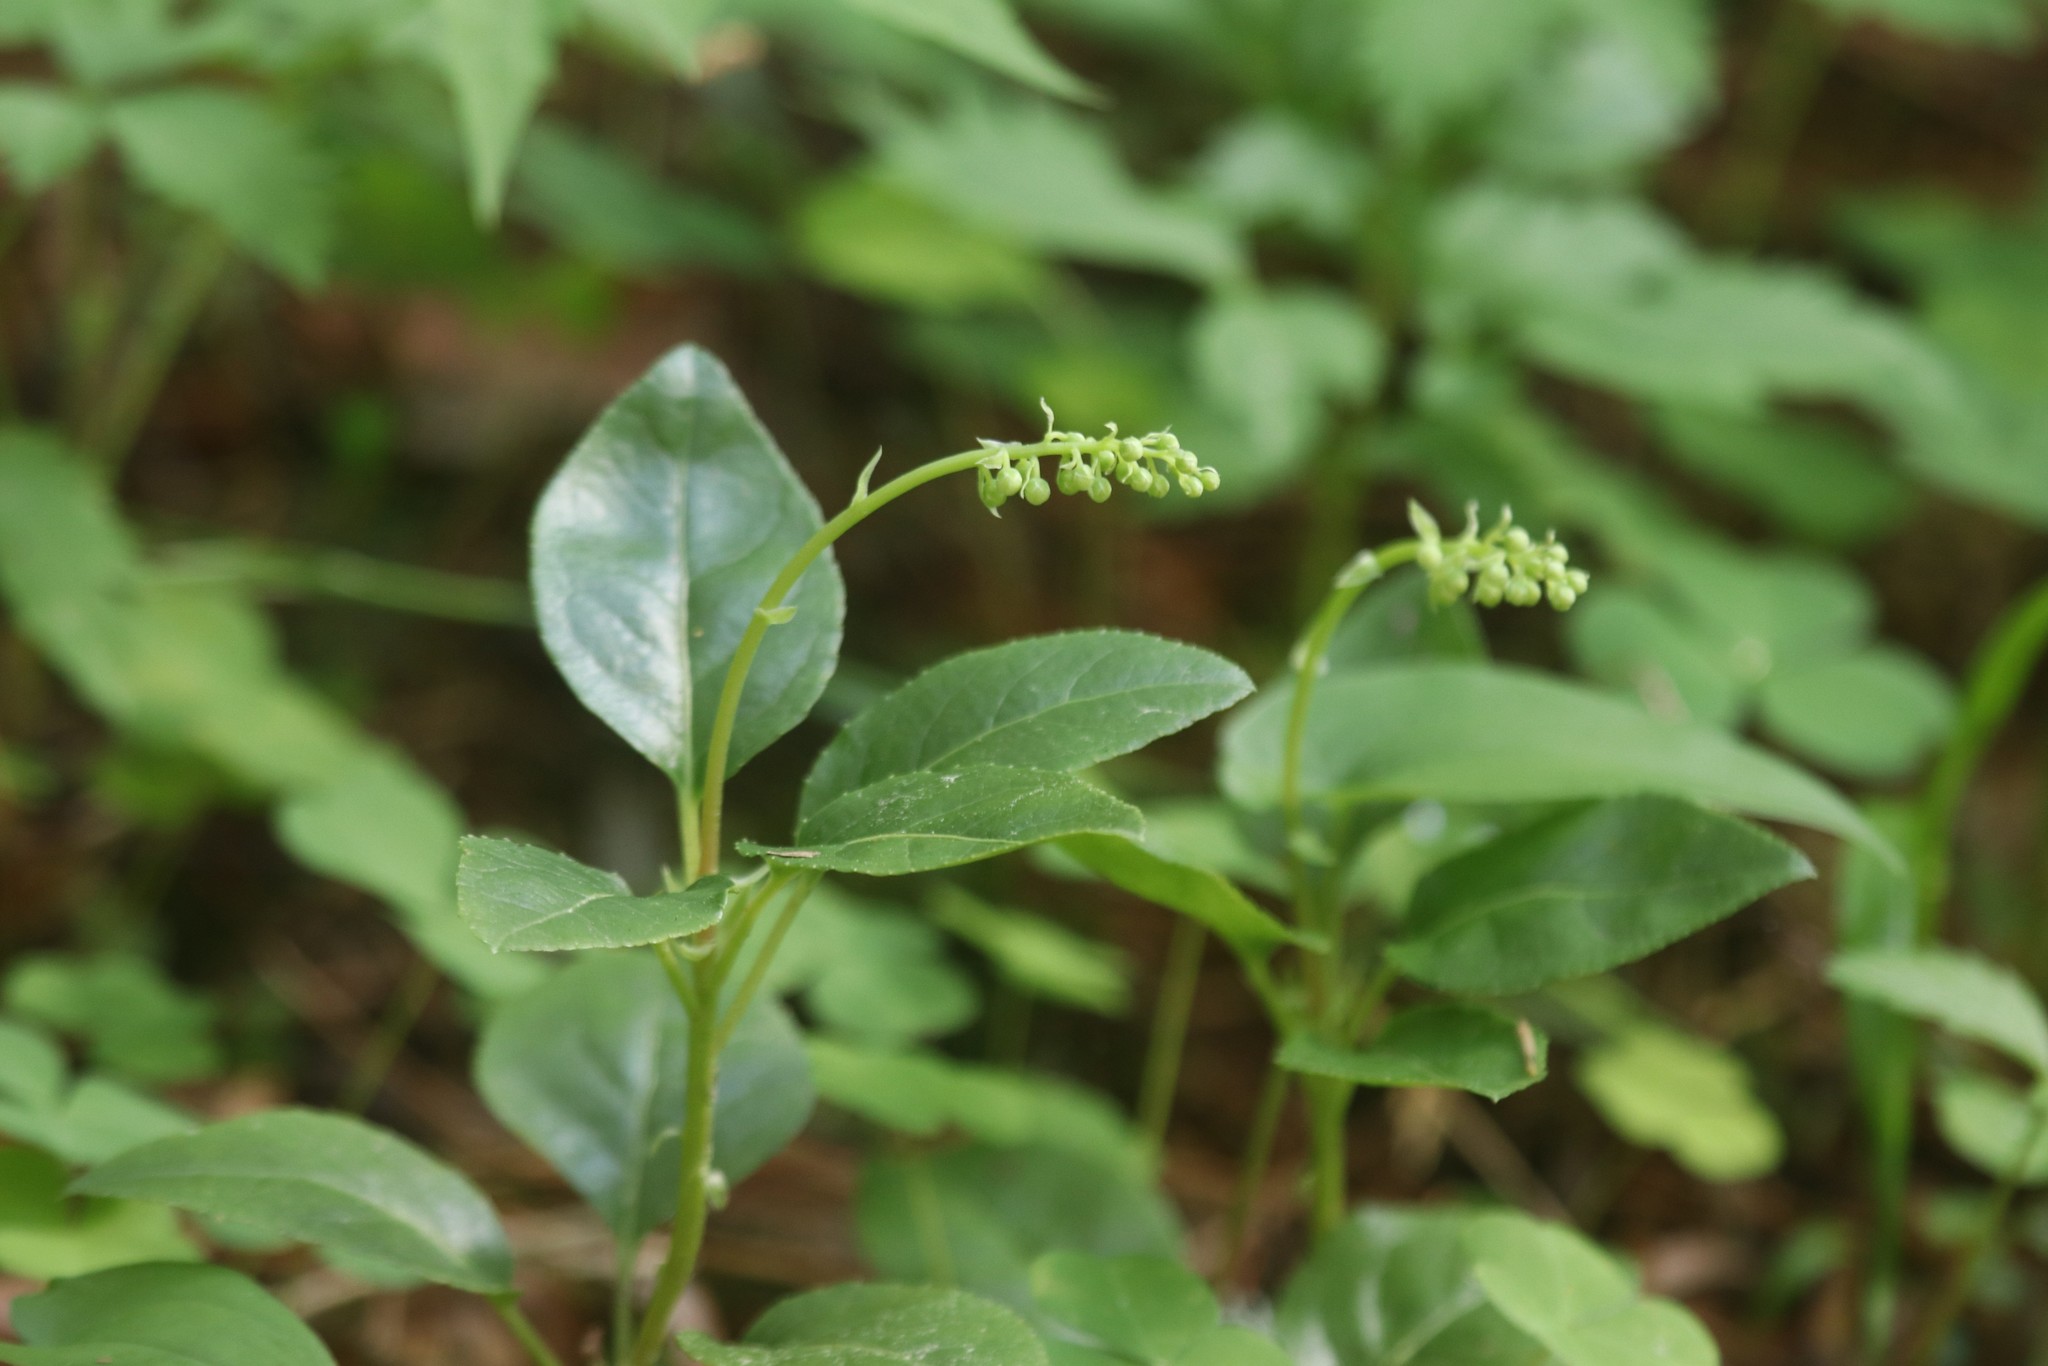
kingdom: Plantae
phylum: Tracheophyta
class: Magnoliopsida
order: Ericales
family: Ericaceae
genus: Orthilia
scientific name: Orthilia secunda
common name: One-sided orthilia
